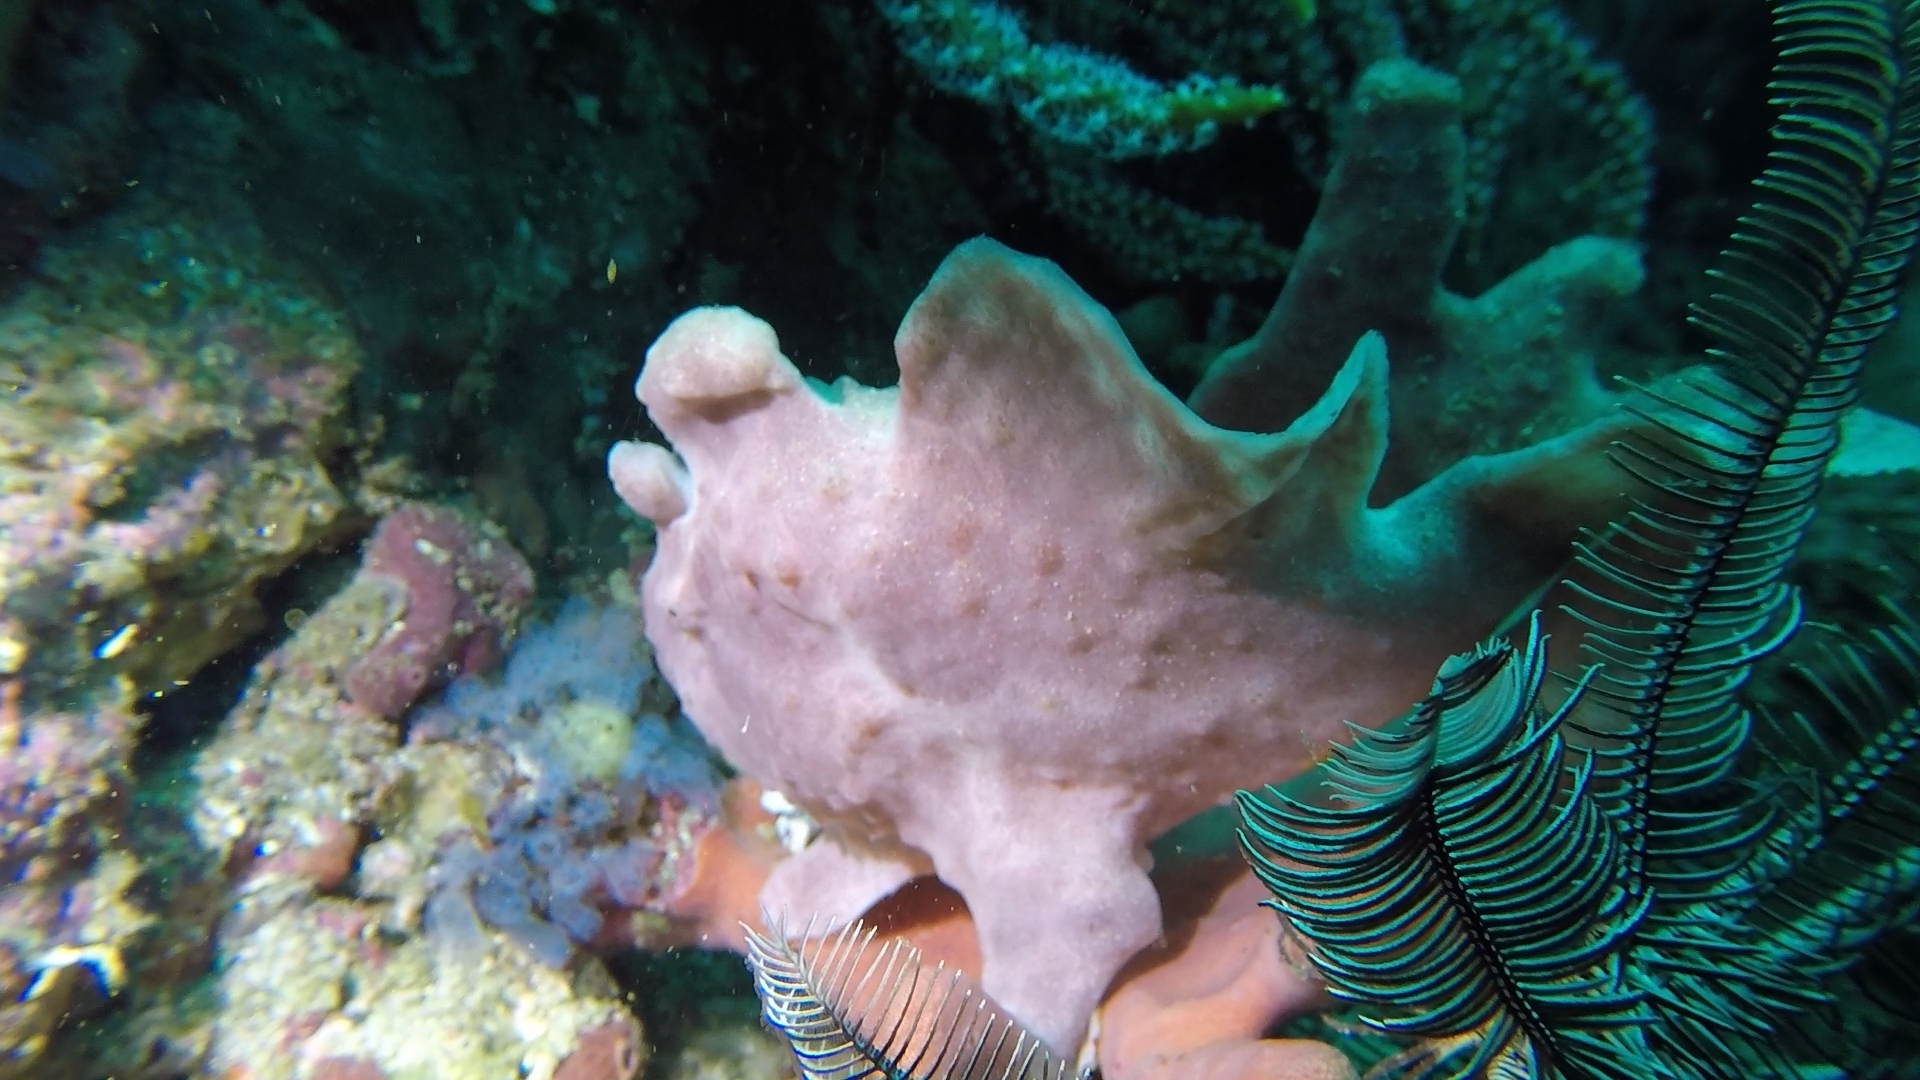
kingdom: Animalia
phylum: Chordata
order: Lophiiformes
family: Antennariidae
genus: Antennarius
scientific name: Antennarius commerson
